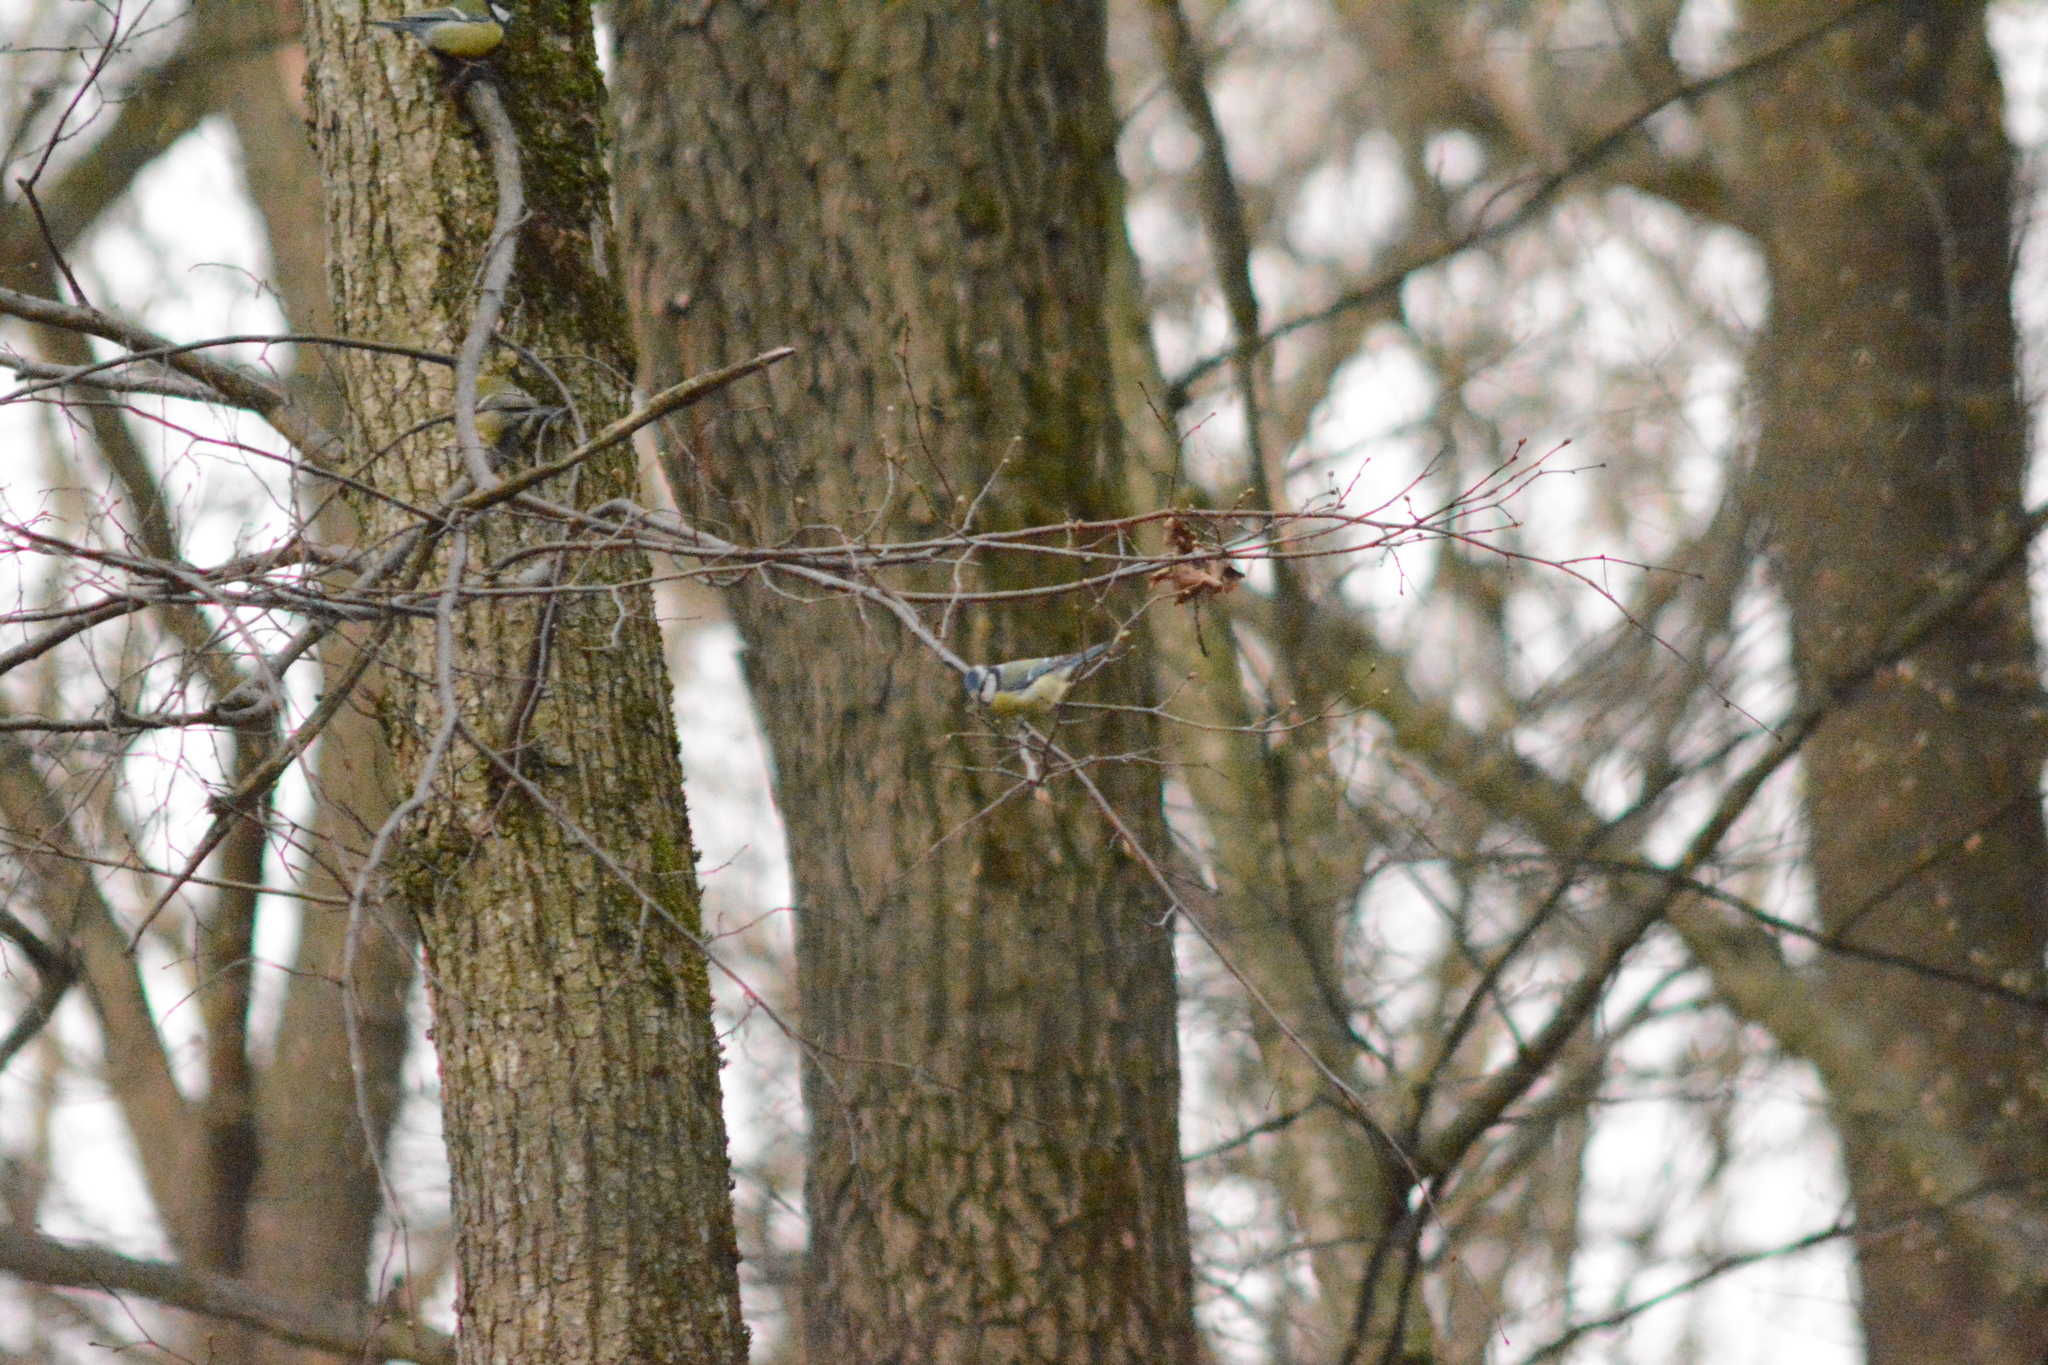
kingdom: Animalia
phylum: Chordata
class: Aves
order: Passeriformes
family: Paridae
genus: Cyanistes
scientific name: Cyanistes caeruleus
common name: Eurasian blue tit
